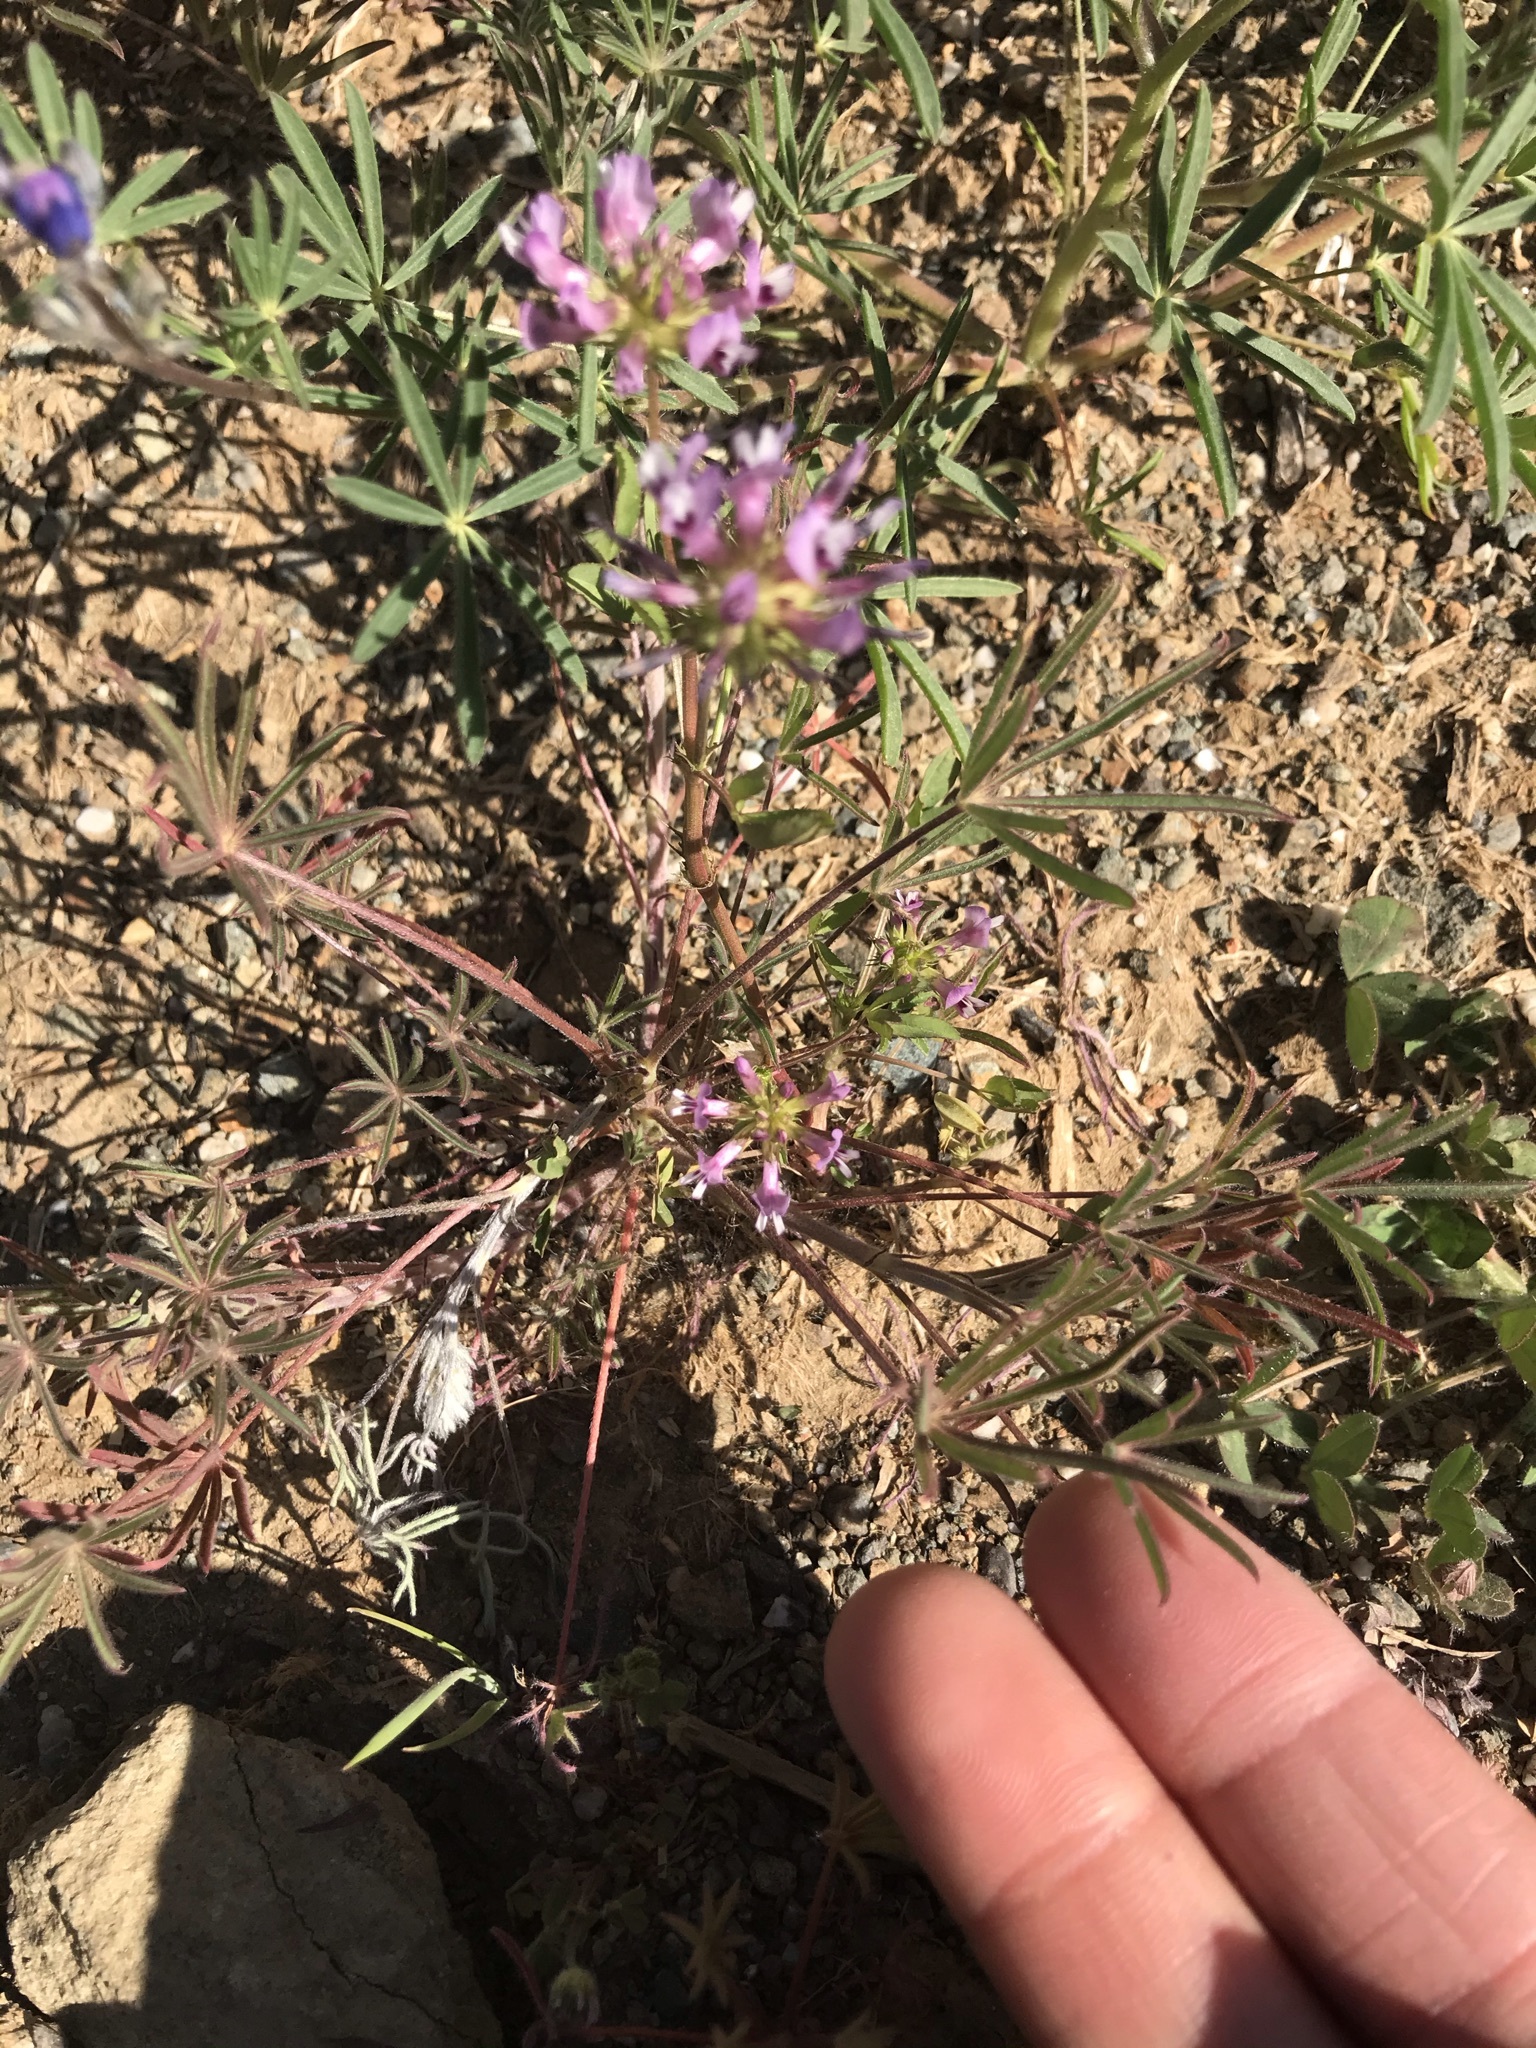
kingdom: Plantae
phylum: Tracheophyta
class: Magnoliopsida
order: Fabales
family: Fabaceae
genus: Trifolium
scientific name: Trifolium willdenovii
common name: Tomcat clover
